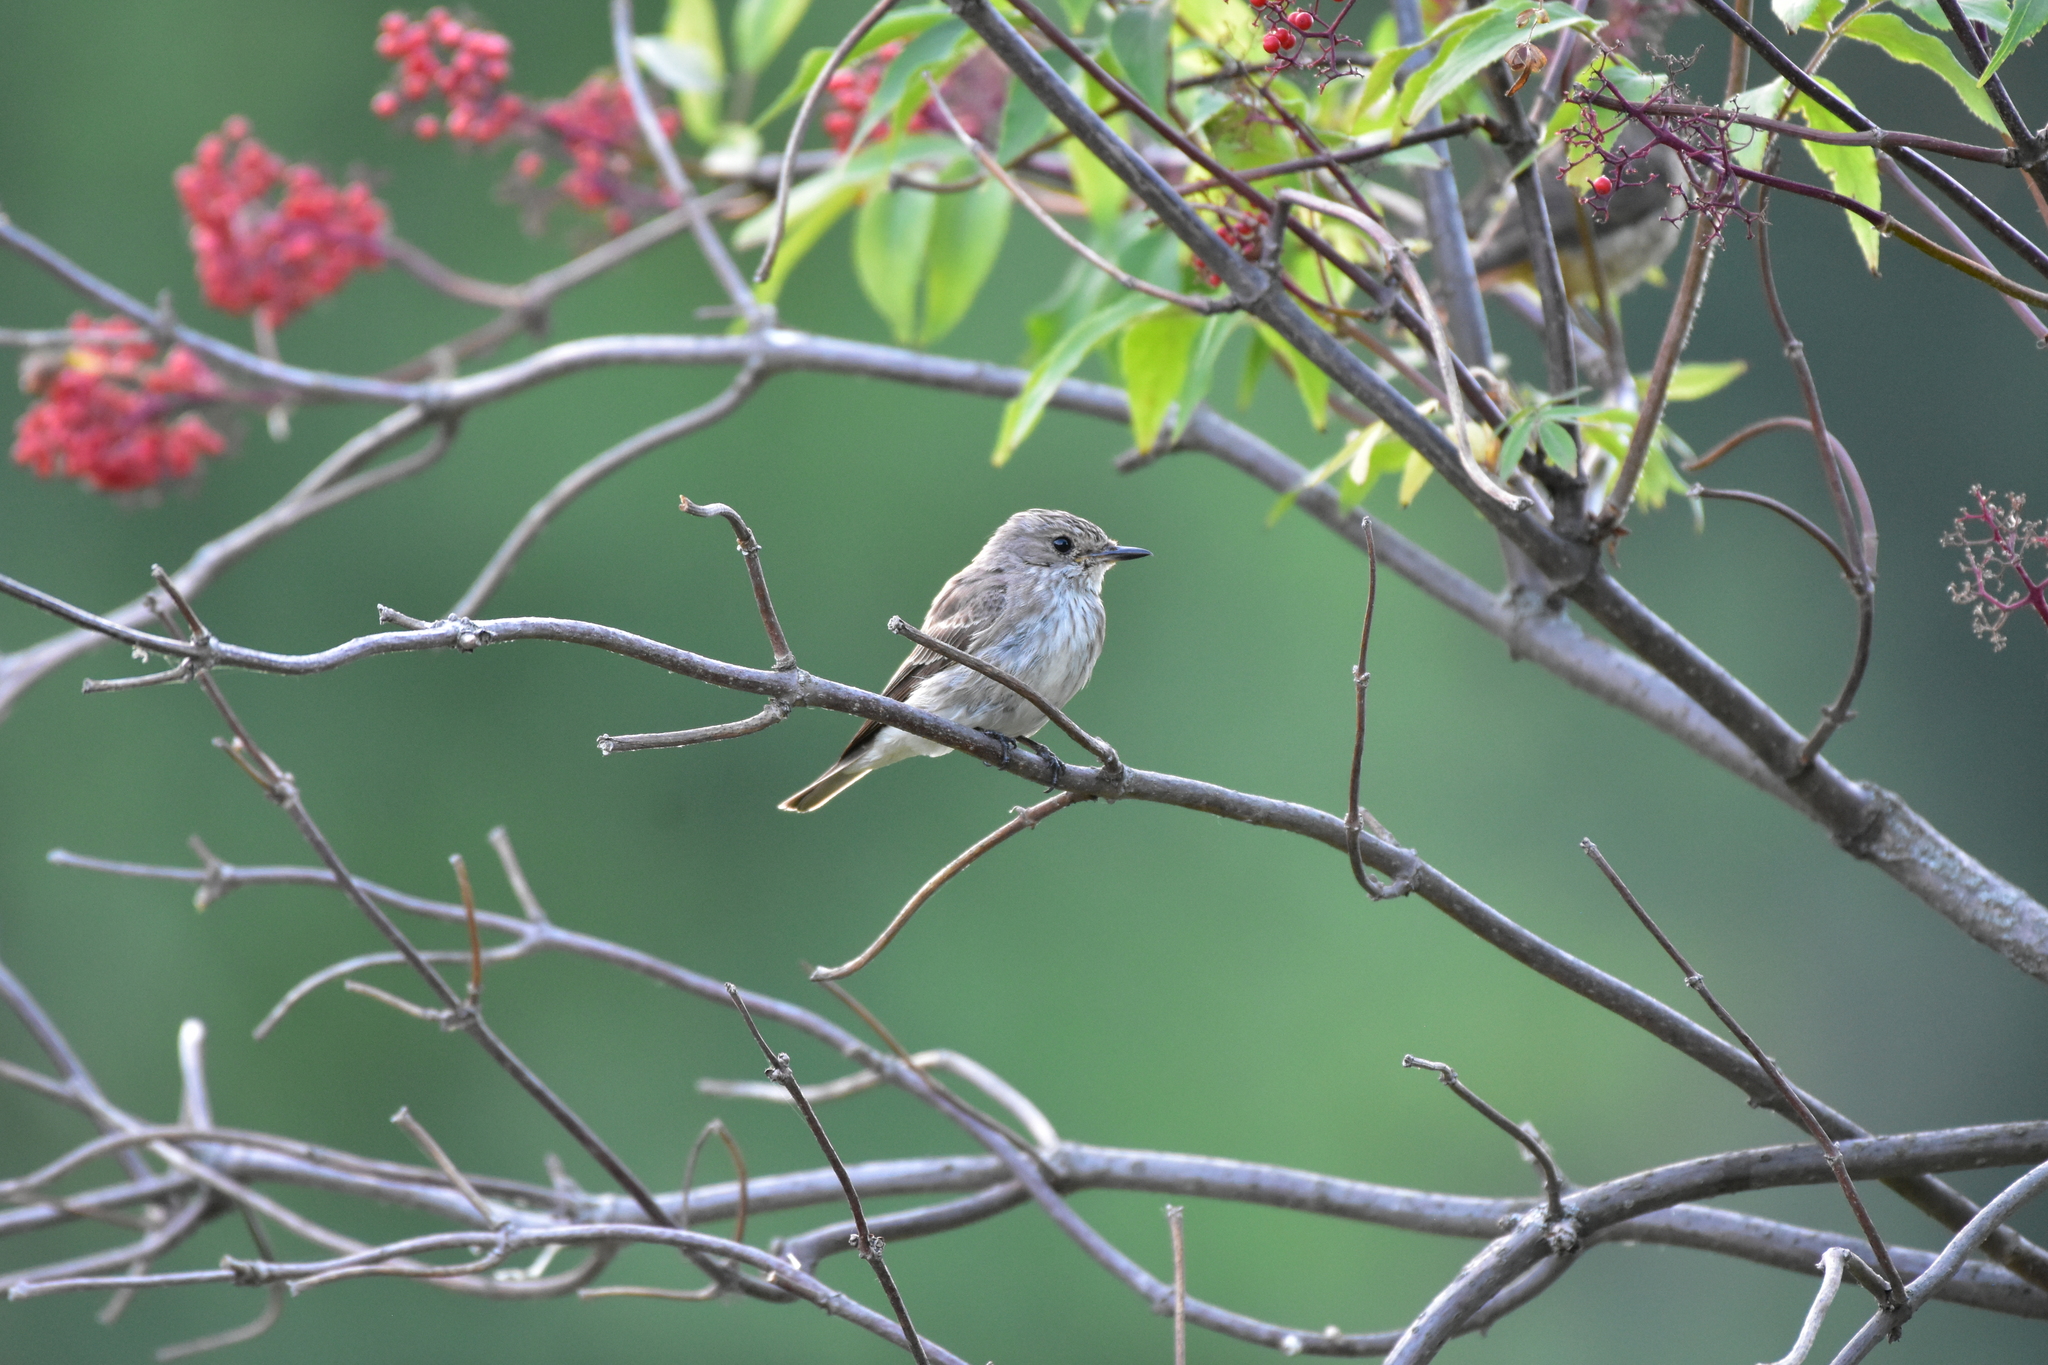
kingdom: Animalia
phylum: Chordata
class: Aves
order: Passeriformes
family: Muscicapidae
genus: Muscicapa
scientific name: Muscicapa striata
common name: Spotted flycatcher
